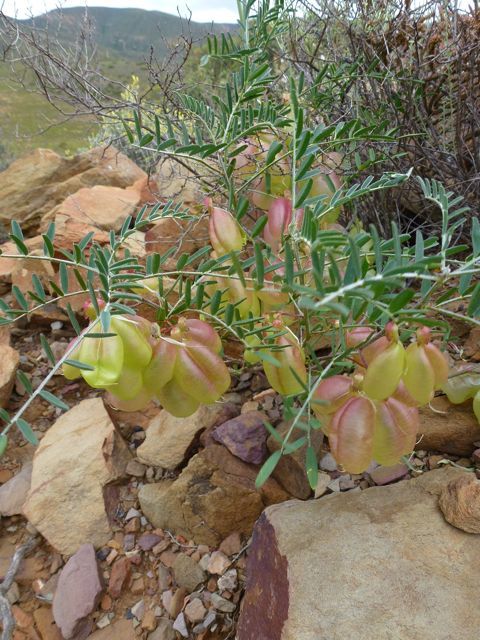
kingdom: Plantae
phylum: Tracheophyta
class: Magnoliopsida
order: Fabales
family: Fabaceae
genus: Lessertia
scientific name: Lessertia frutescens
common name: Balloon-pea
